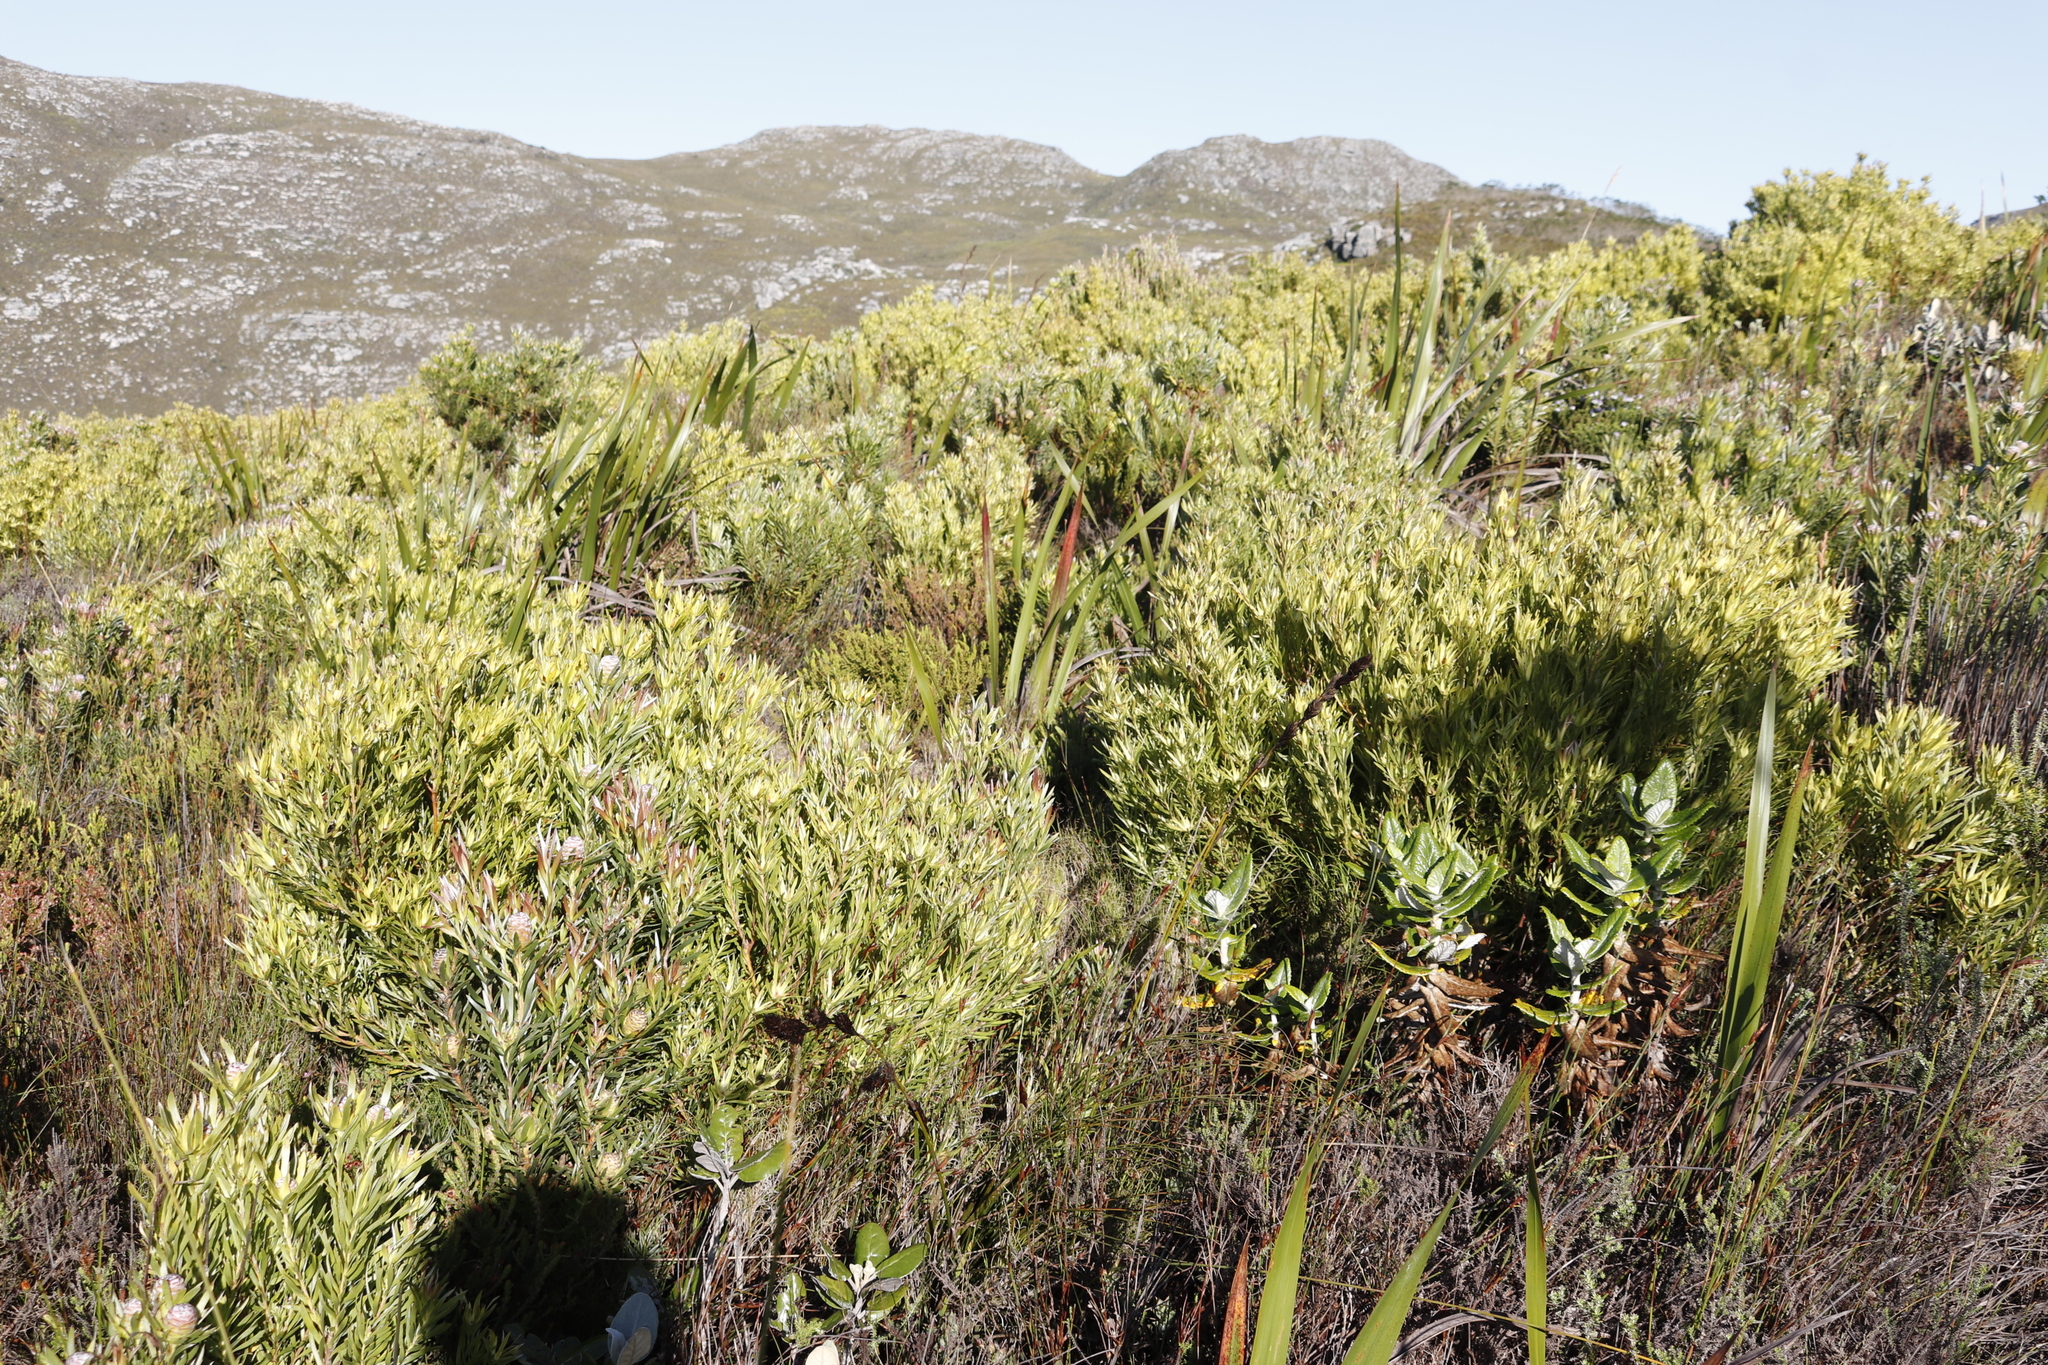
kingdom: Plantae
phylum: Tracheophyta
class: Magnoliopsida
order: Proteales
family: Proteaceae
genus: Leucadendron
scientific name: Leucadendron xanthoconus
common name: Sickle-leaf conebush
